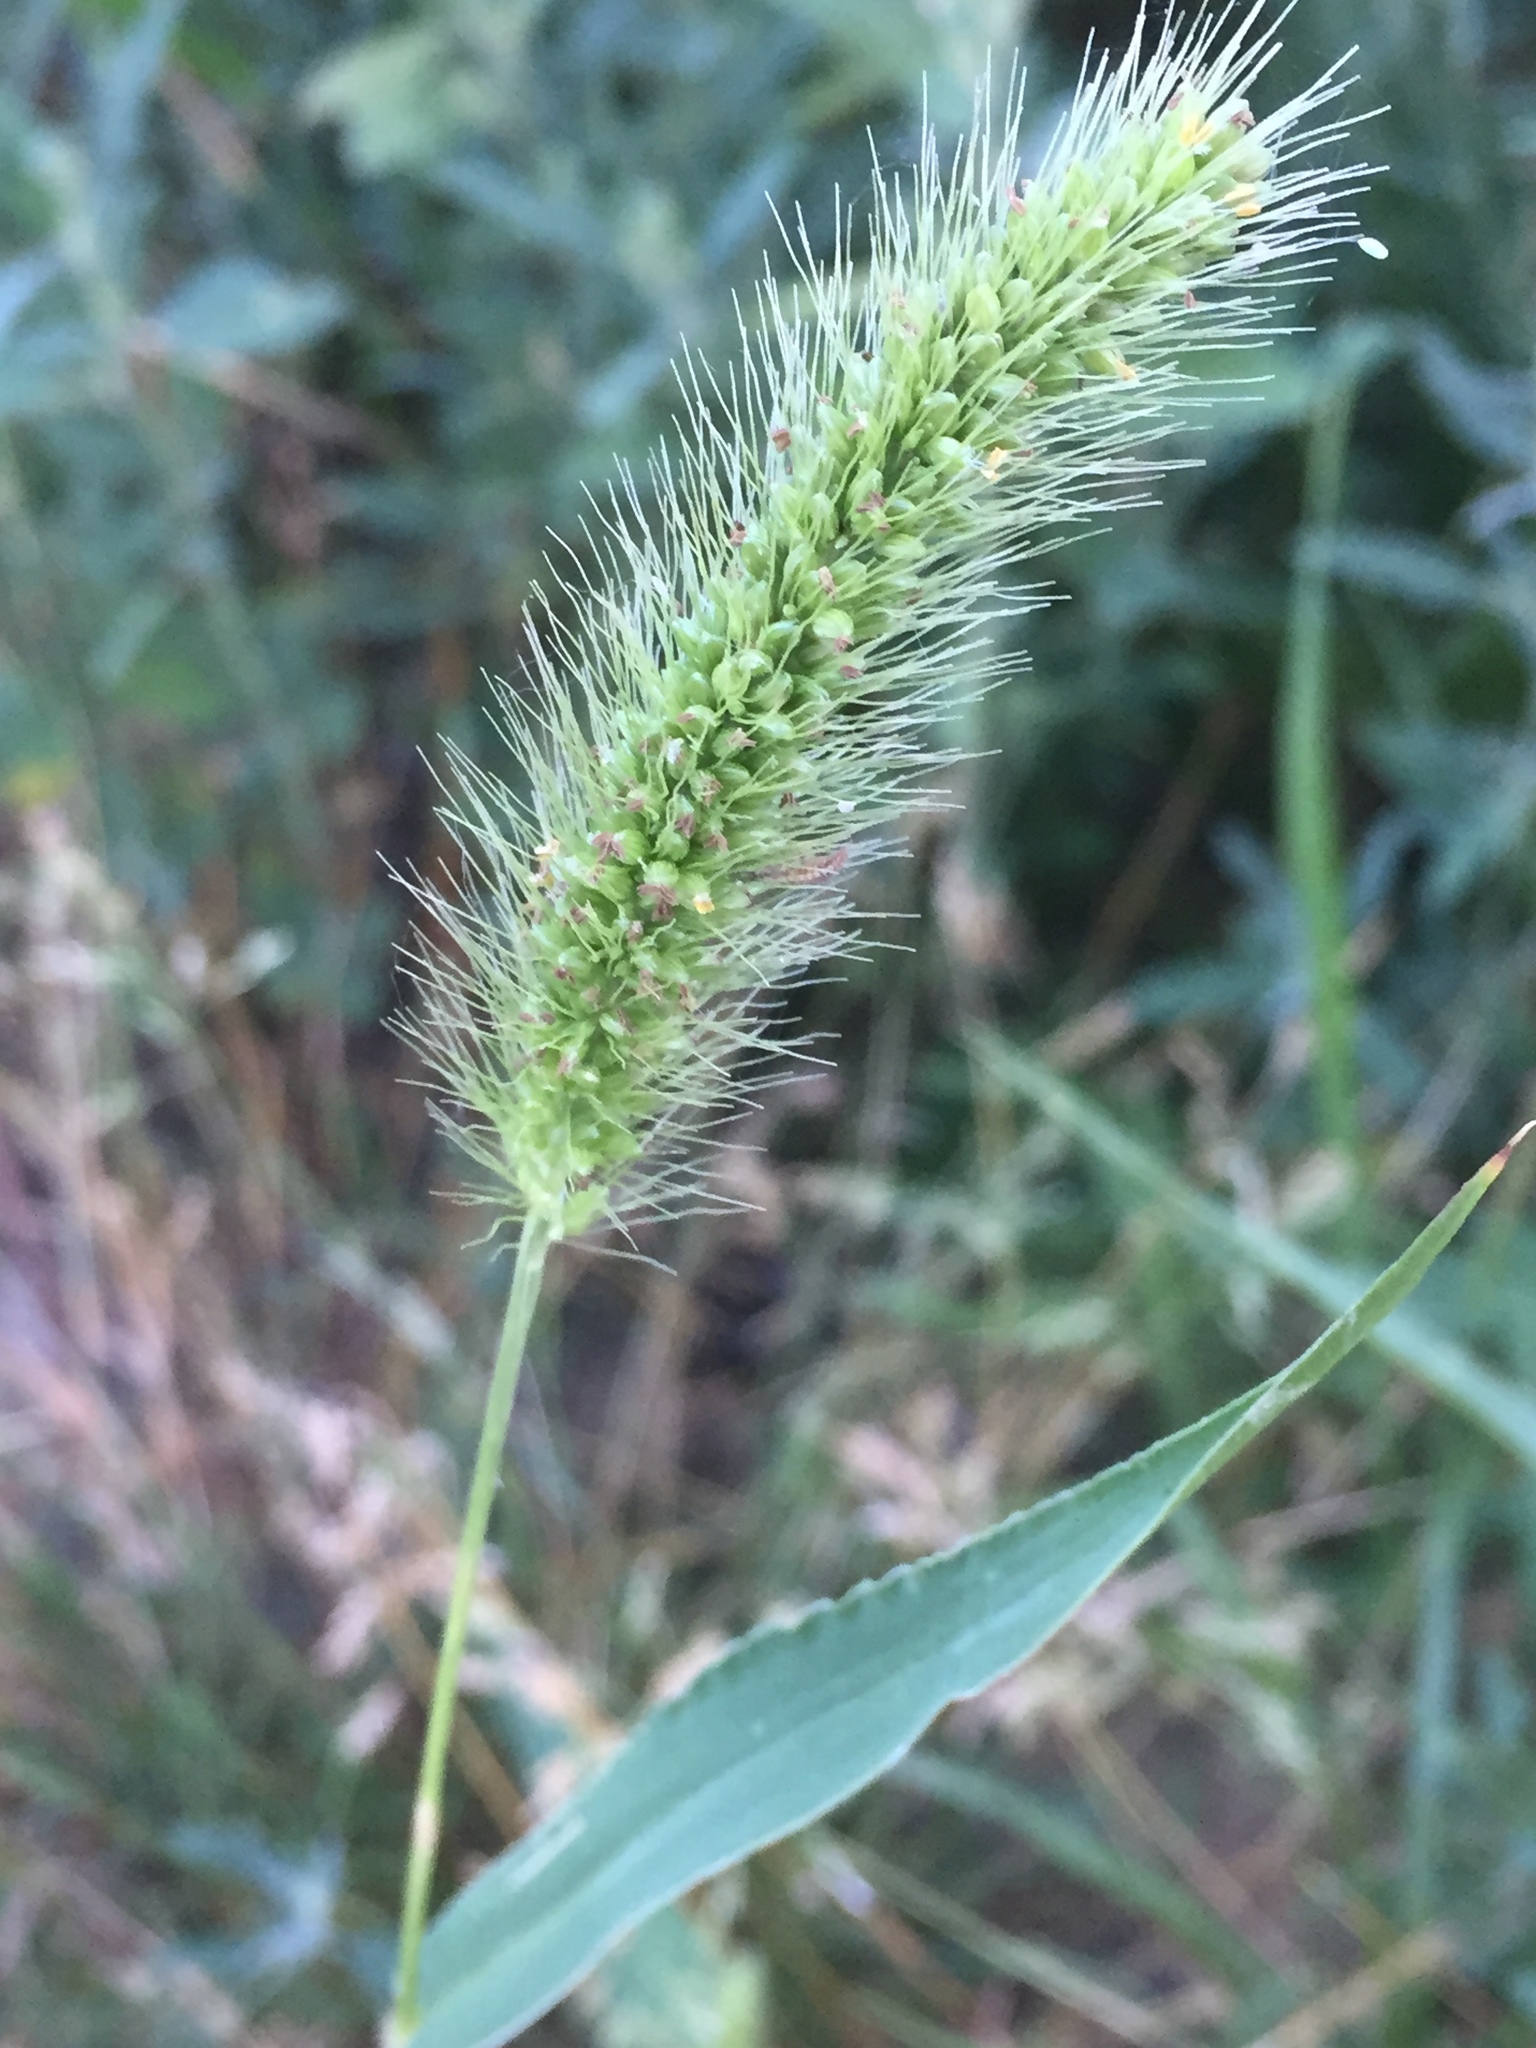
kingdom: Plantae
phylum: Tracheophyta
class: Liliopsida
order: Poales
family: Poaceae
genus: Setaria
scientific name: Setaria viridis
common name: Green bristlegrass
